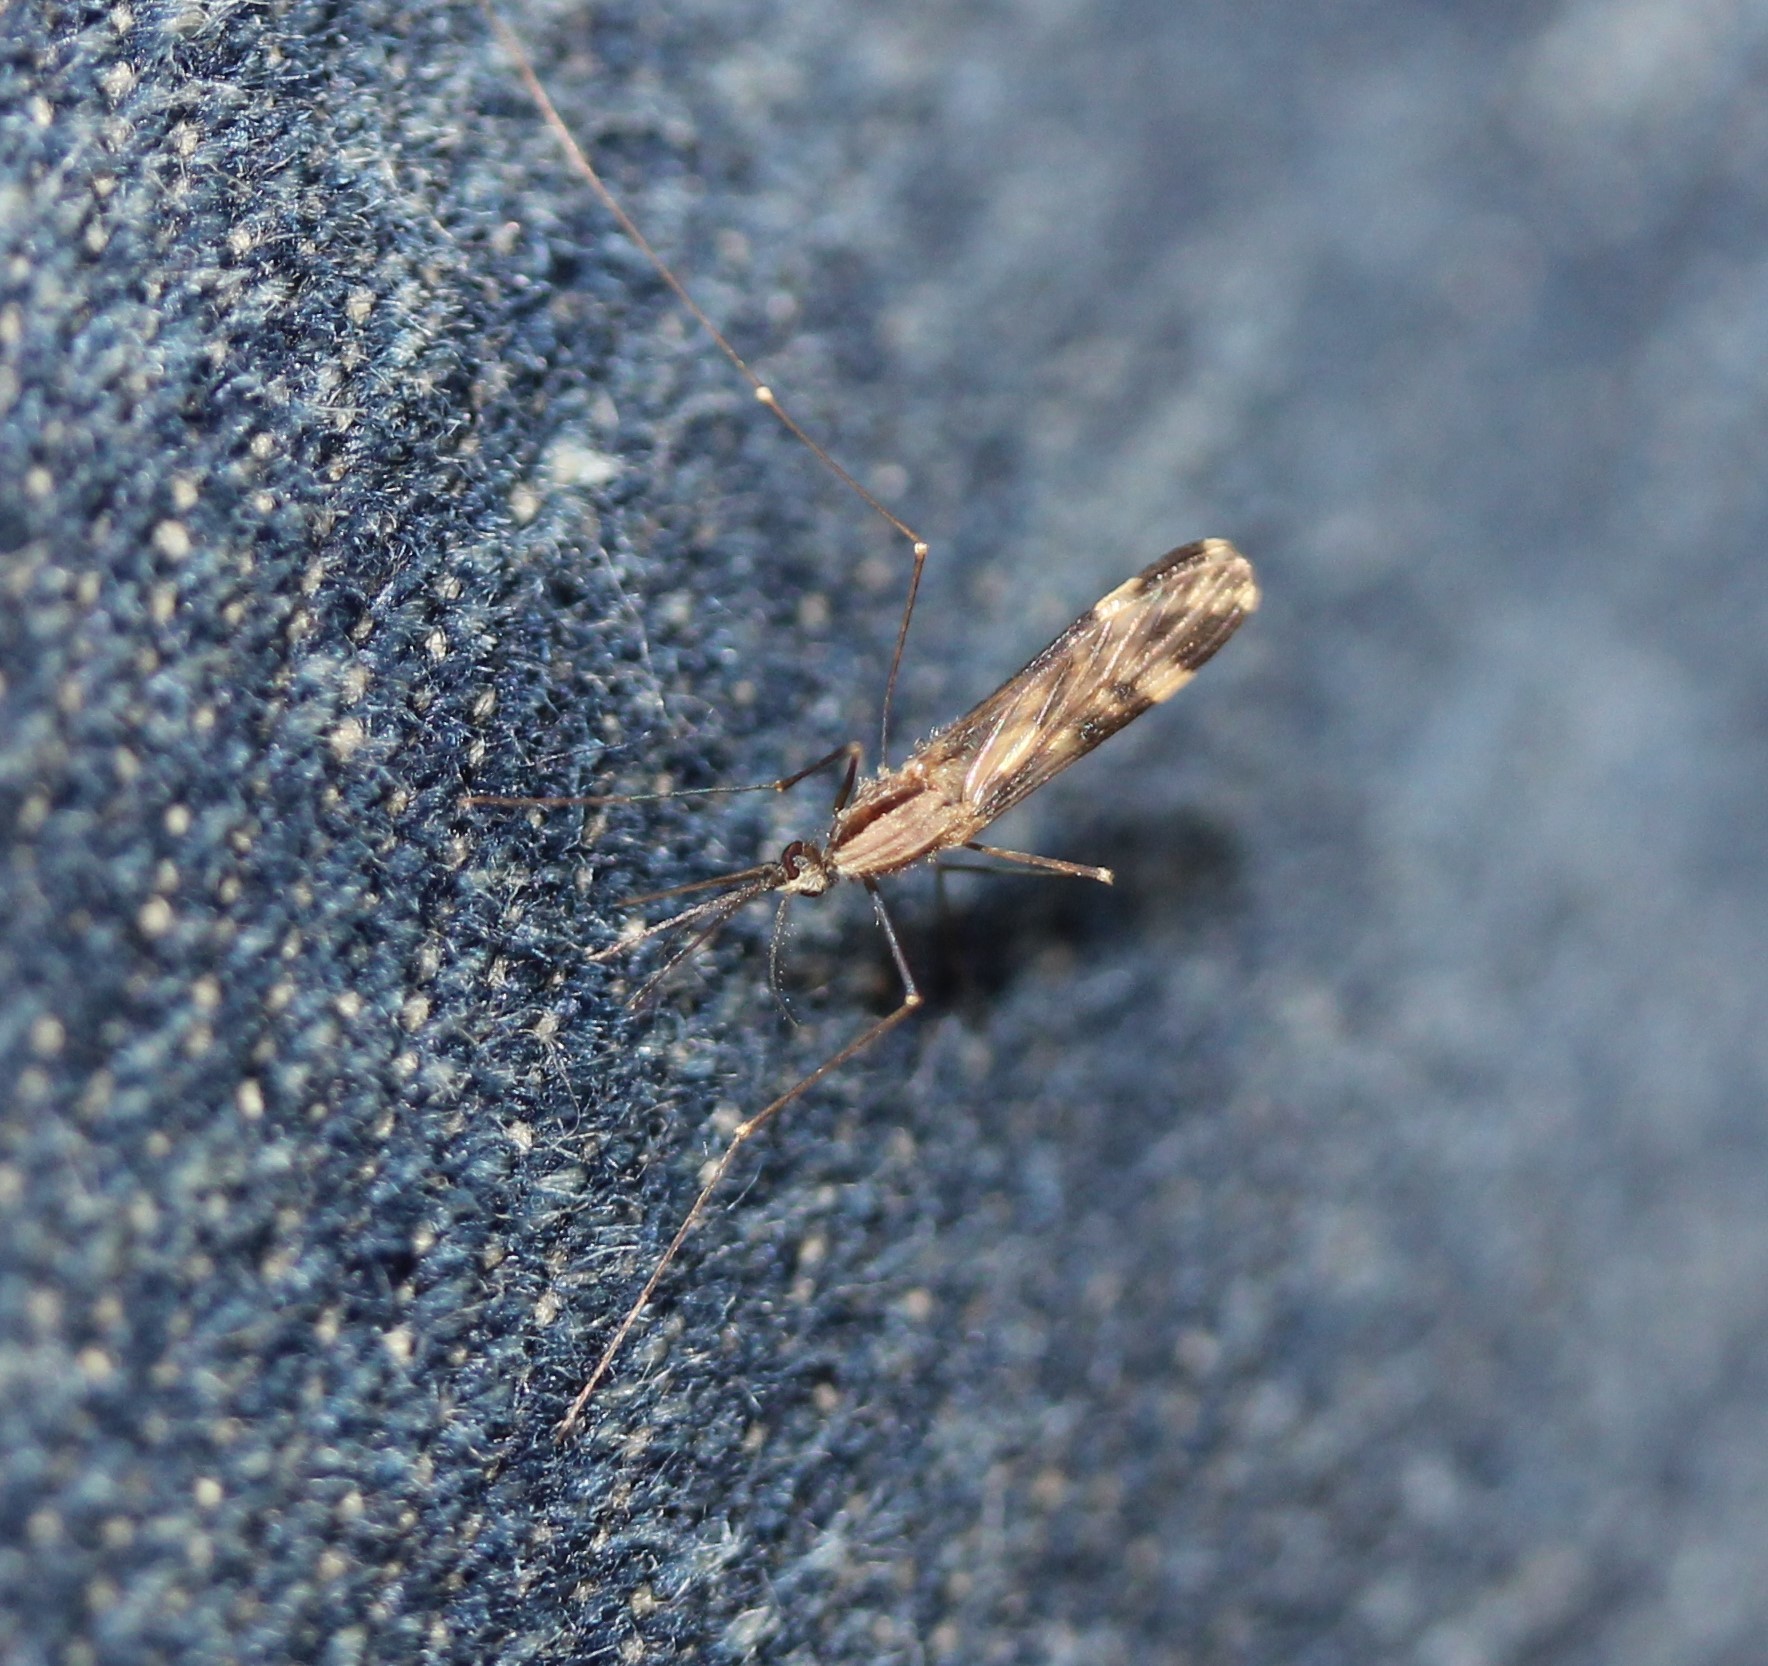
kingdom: Animalia
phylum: Arthropoda
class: Insecta
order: Diptera
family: Culicidae
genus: Anopheles
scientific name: Anopheles punctipennis
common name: Woodland malaria mosquito
